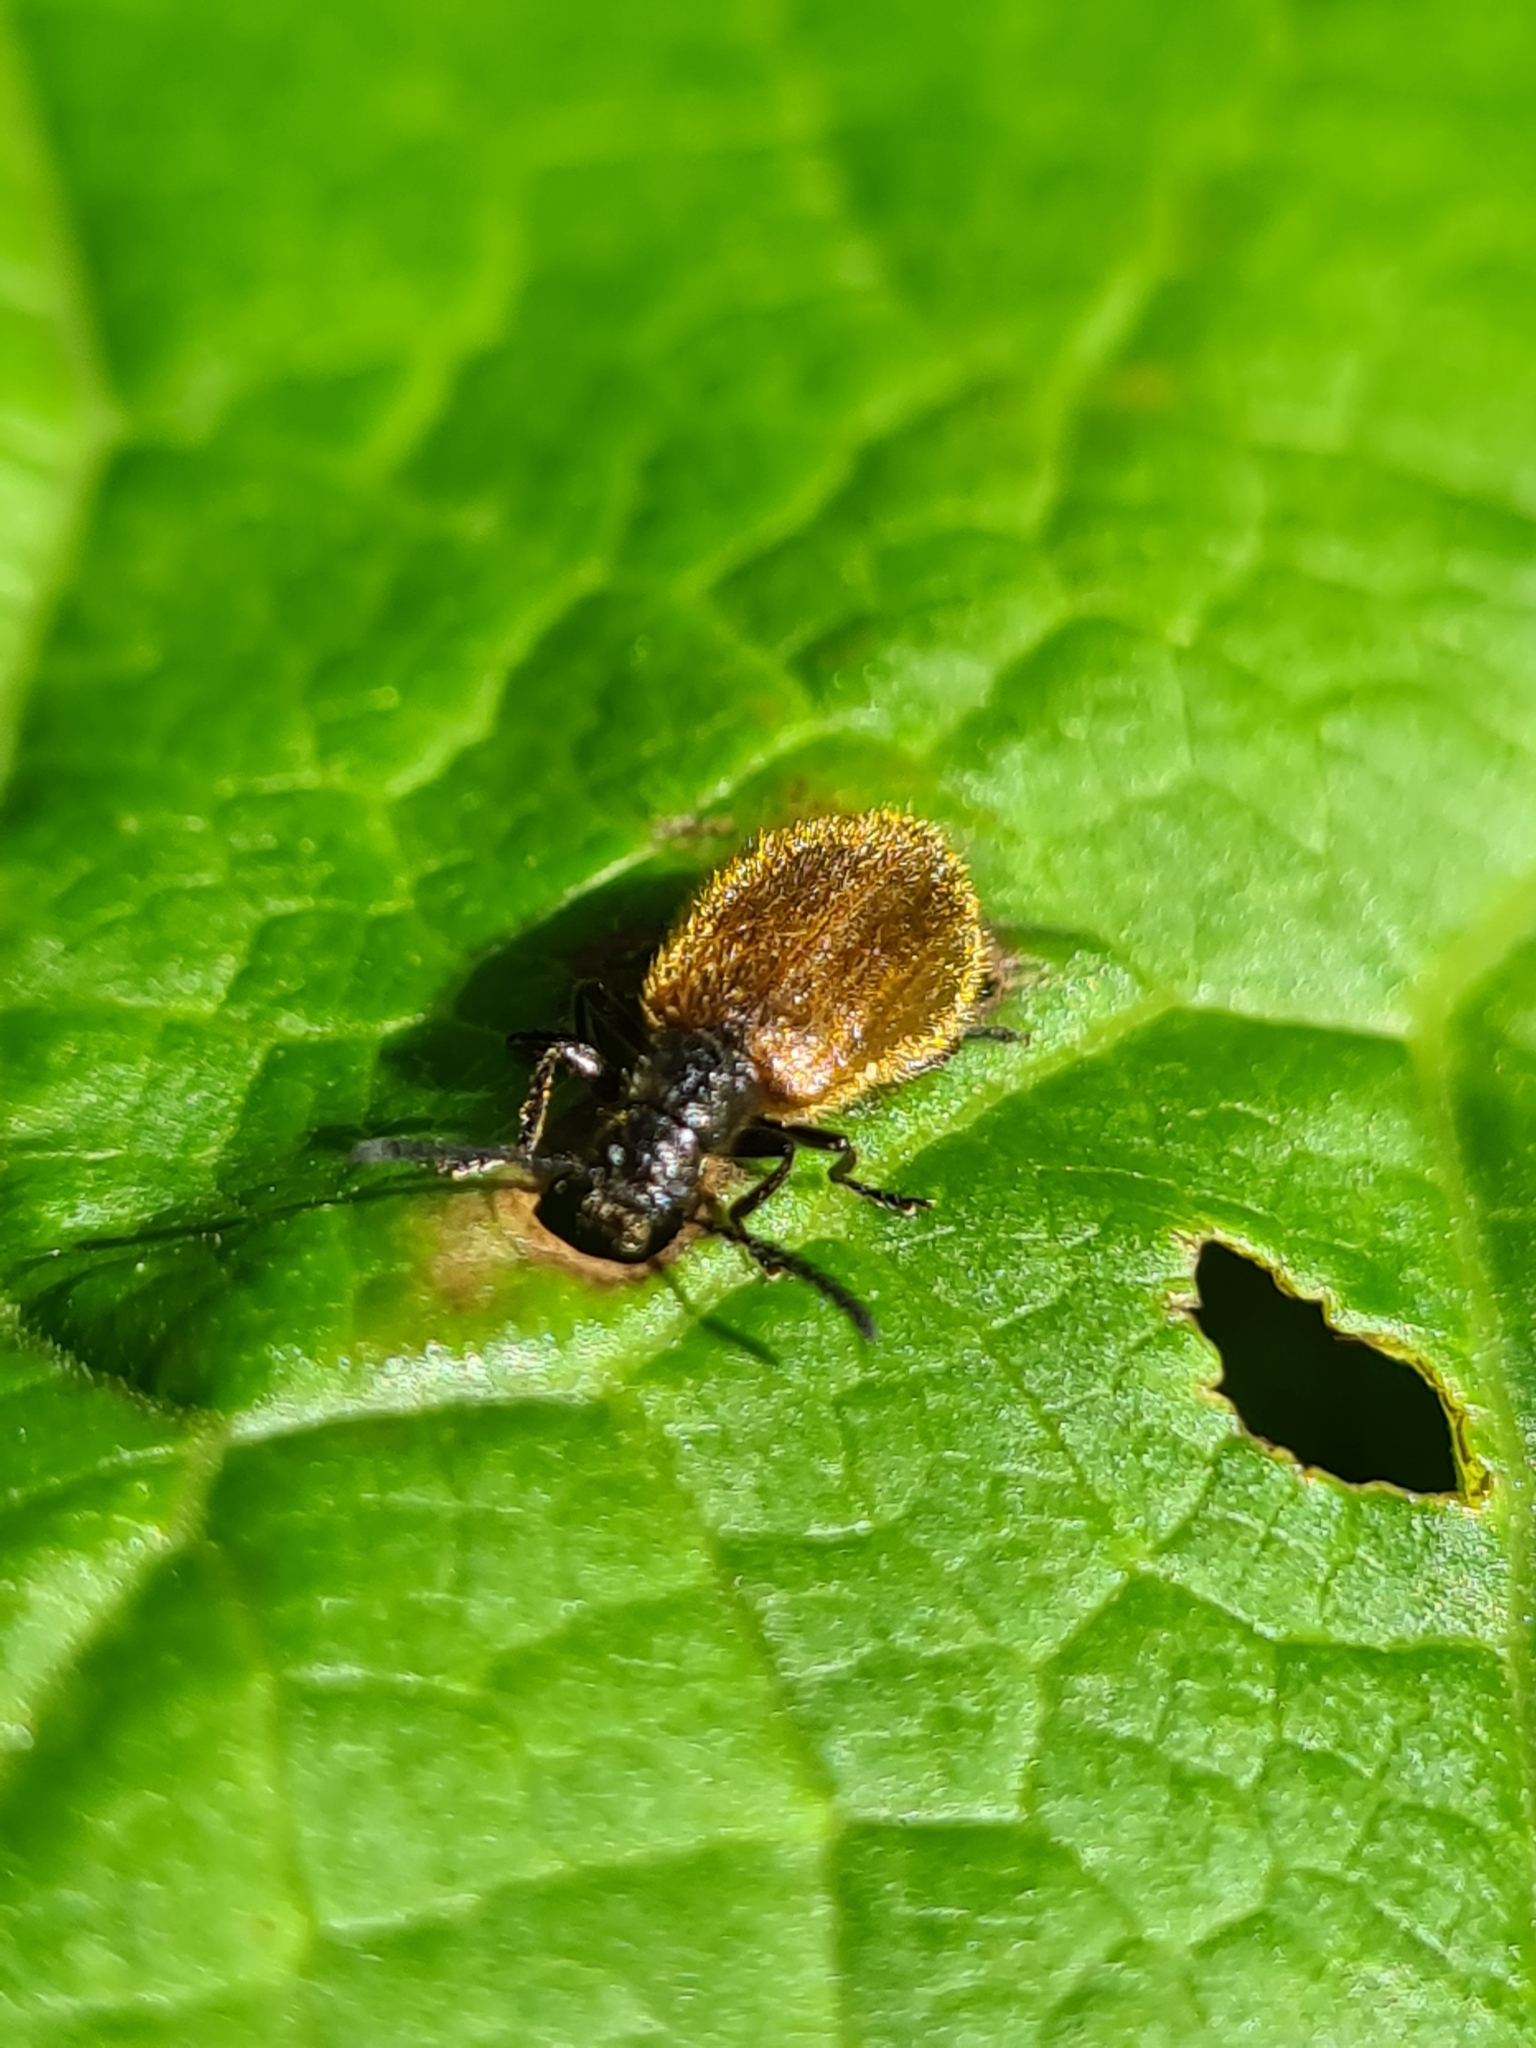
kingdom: Animalia
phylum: Arthropoda
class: Insecta
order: Coleoptera
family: Tenebrionidae
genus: Lagria
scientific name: Lagria hirta
